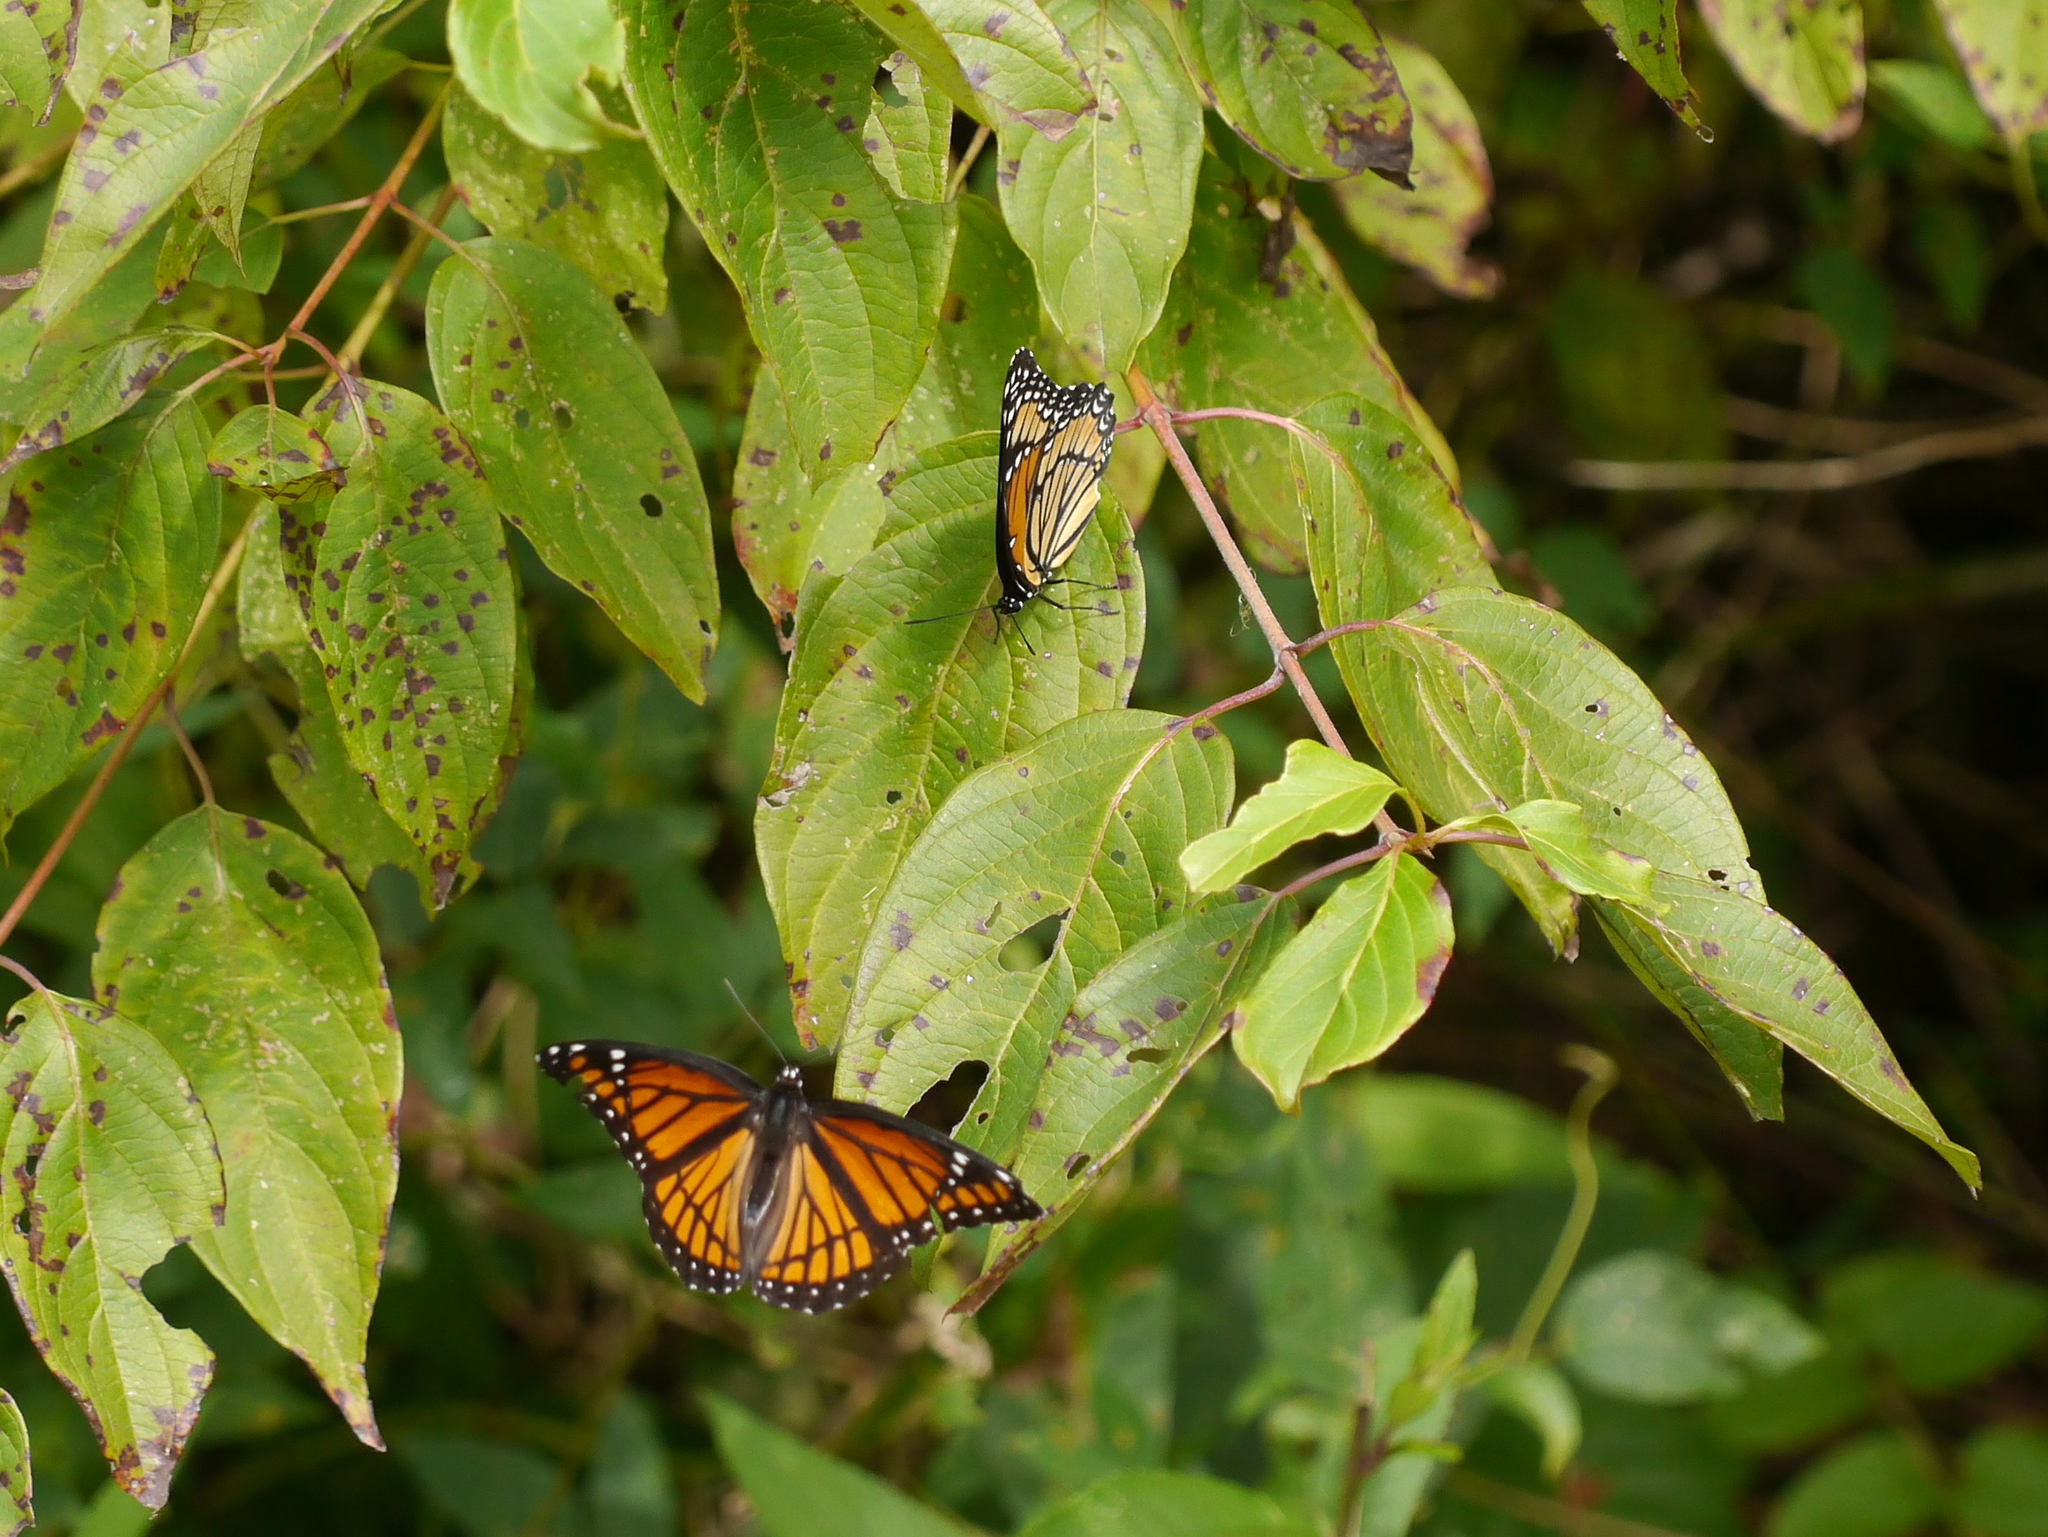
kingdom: Animalia
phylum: Arthropoda
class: Insecta
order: Lepidoptera
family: Nymphalidae
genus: Limenitis
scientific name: Limenitis archippus
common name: Viceroy
